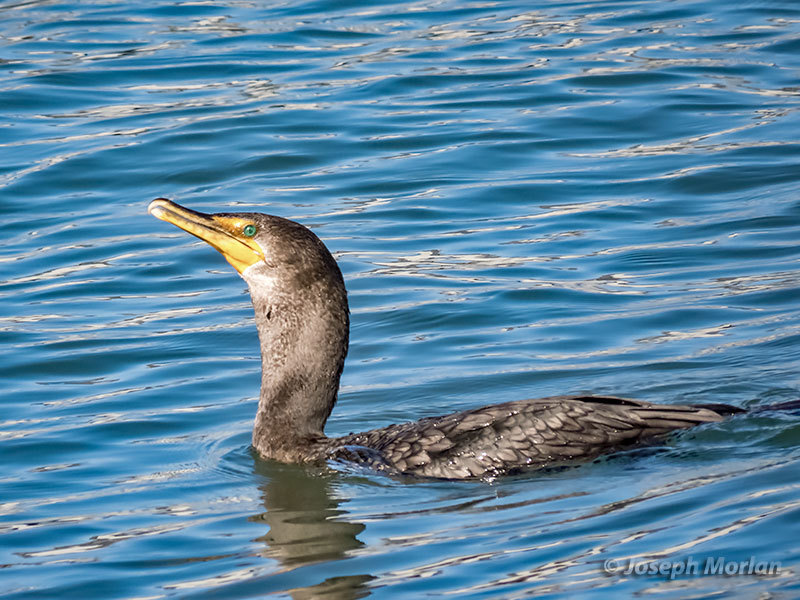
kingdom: Animalia
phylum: Chordata
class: Aves
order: Suliformes
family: Phalacrocoracidae
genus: Phalacrocorax
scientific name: Phalacrocorax auritus
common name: Double-crested cormorant
